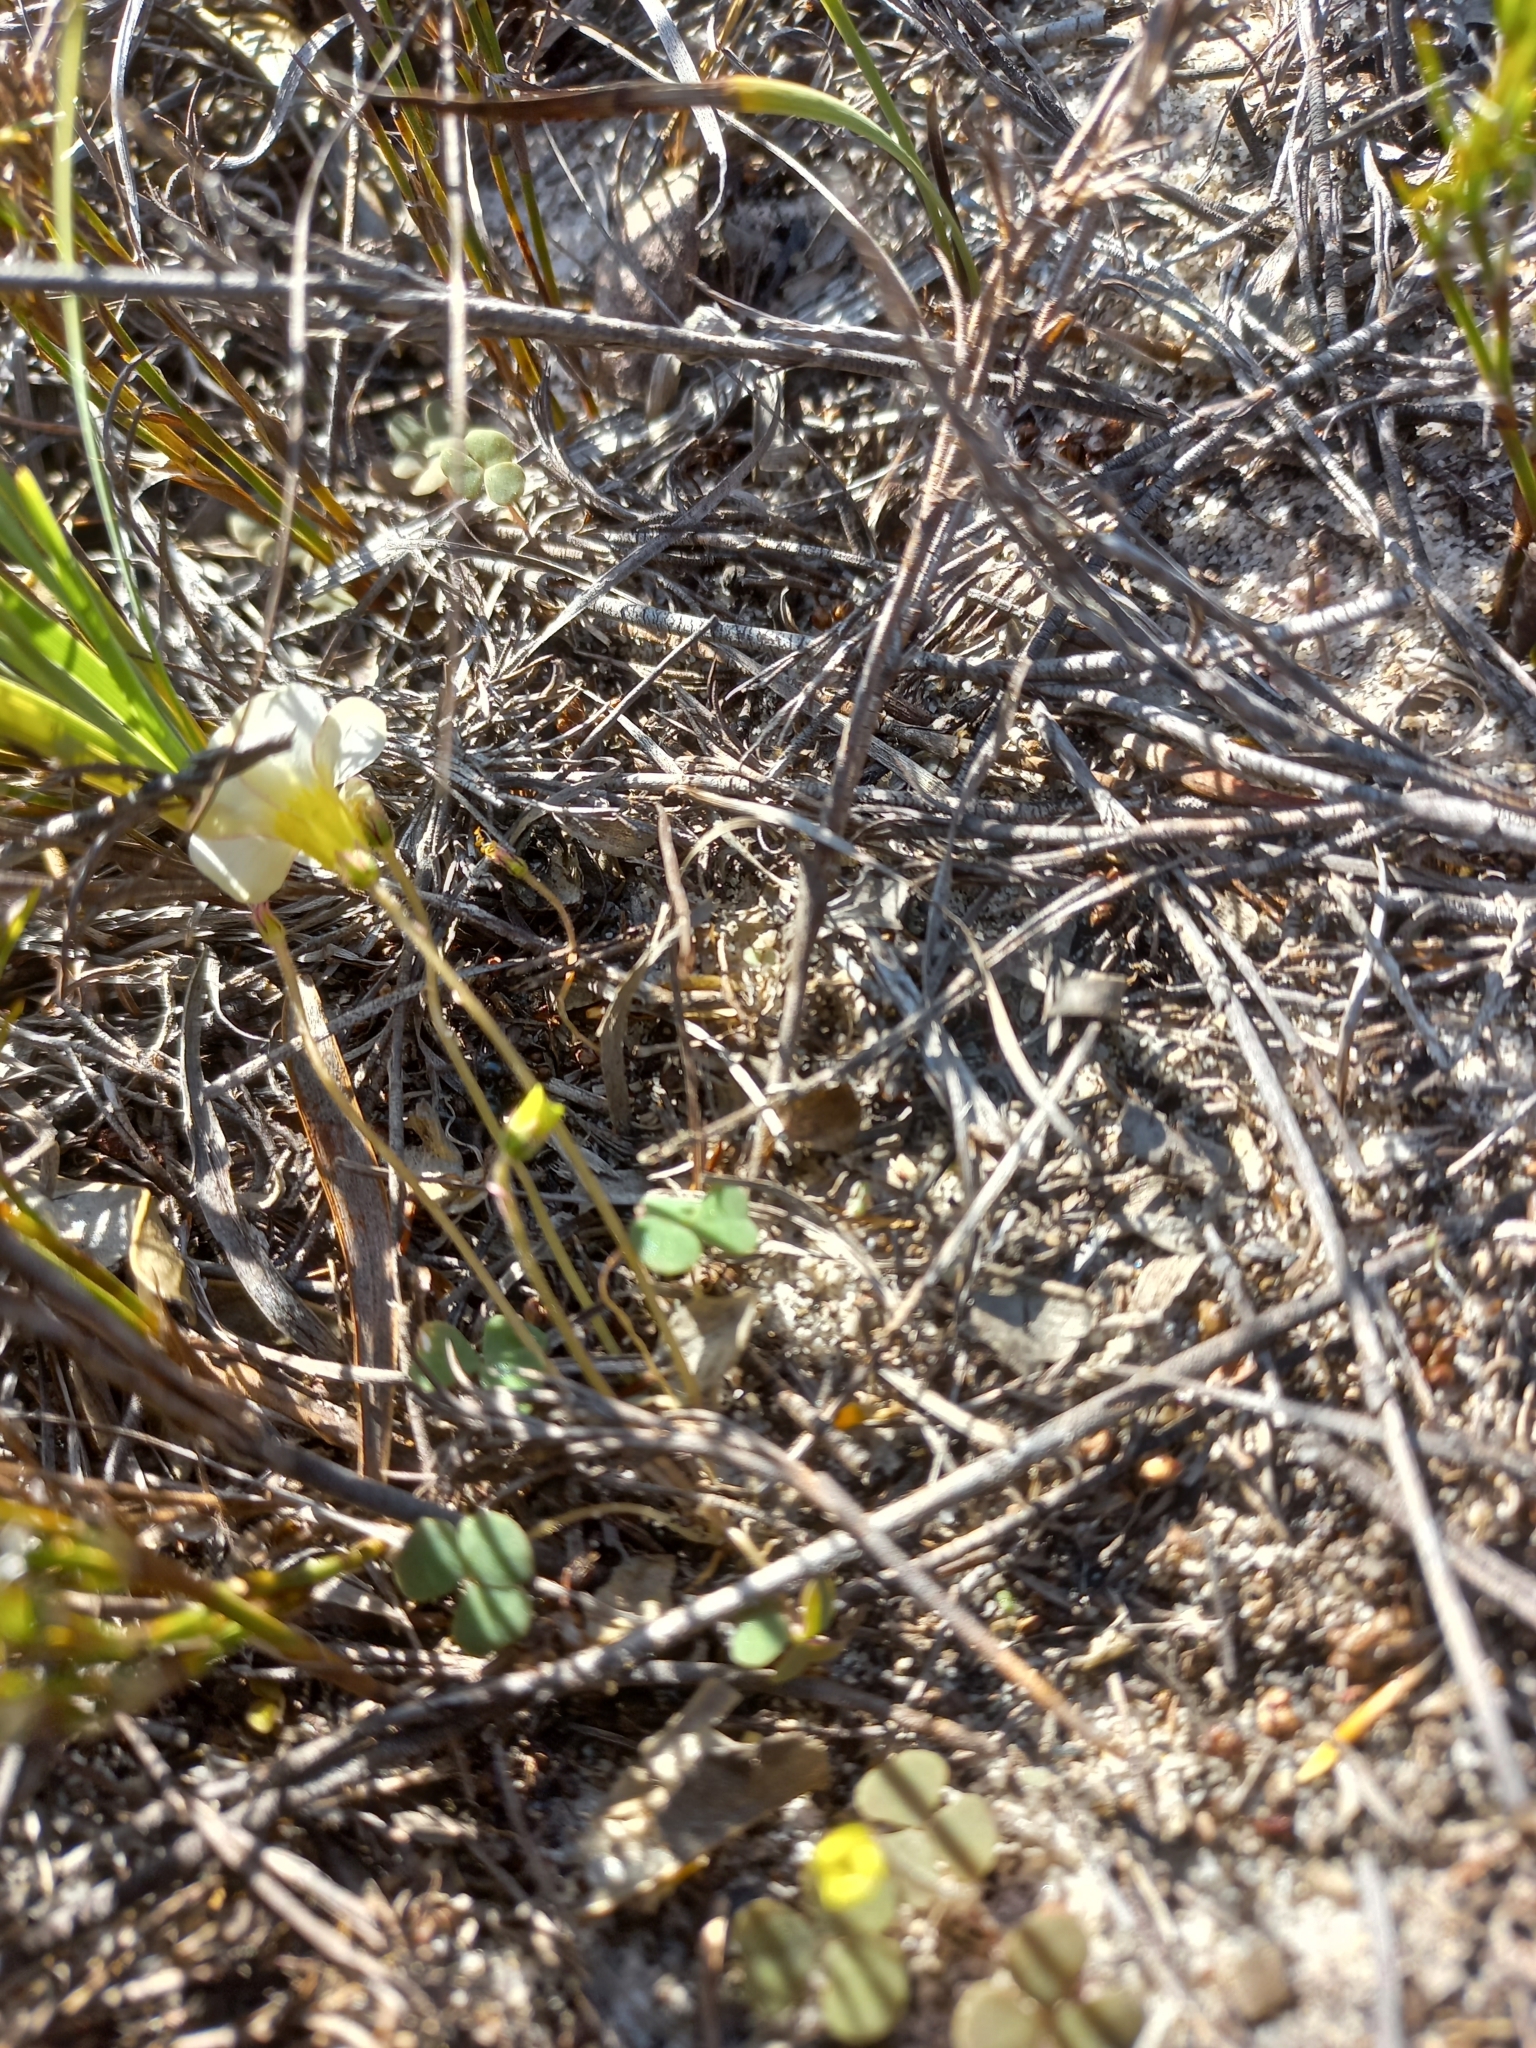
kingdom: Plantae
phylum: Tracheophyta
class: Magnoliopsida
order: Oxalidales
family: Oxalidaceae
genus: Oxalis
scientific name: Oxalis punctata
